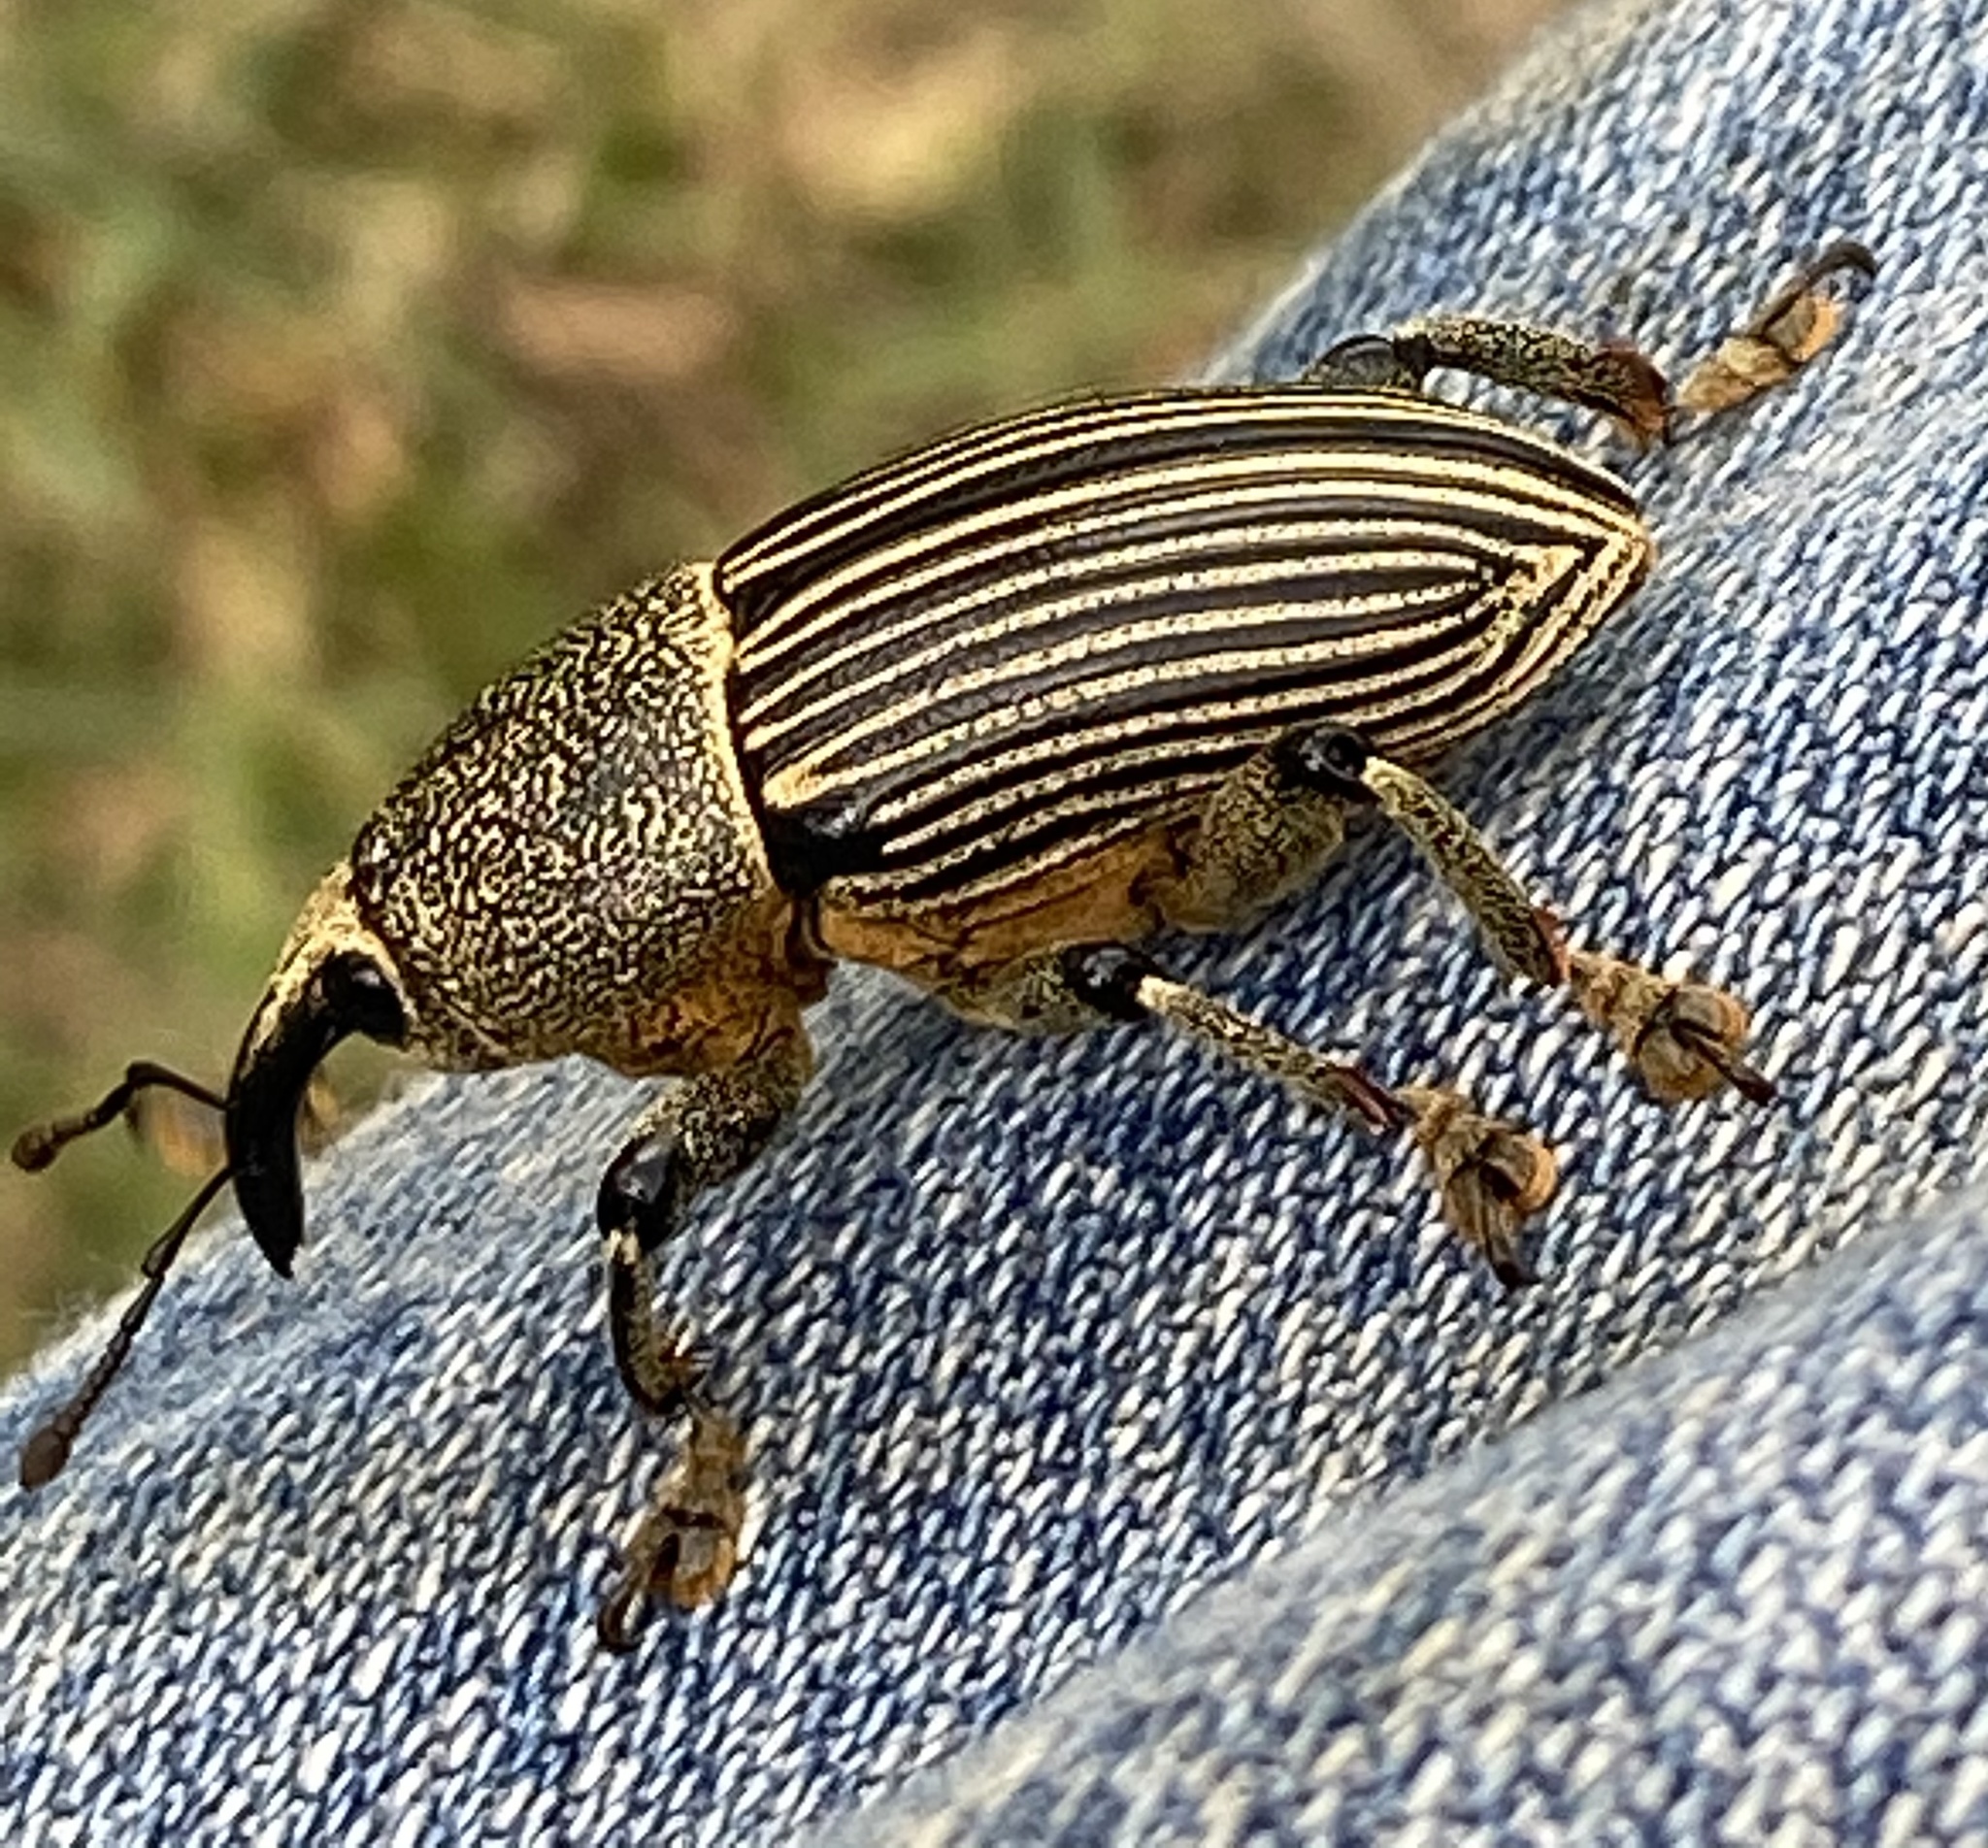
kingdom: Animalia
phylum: Arthropoda
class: Insecta
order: Coleoptera
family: Curculionidae
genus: Cholus
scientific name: Cholus parallelogrammus
